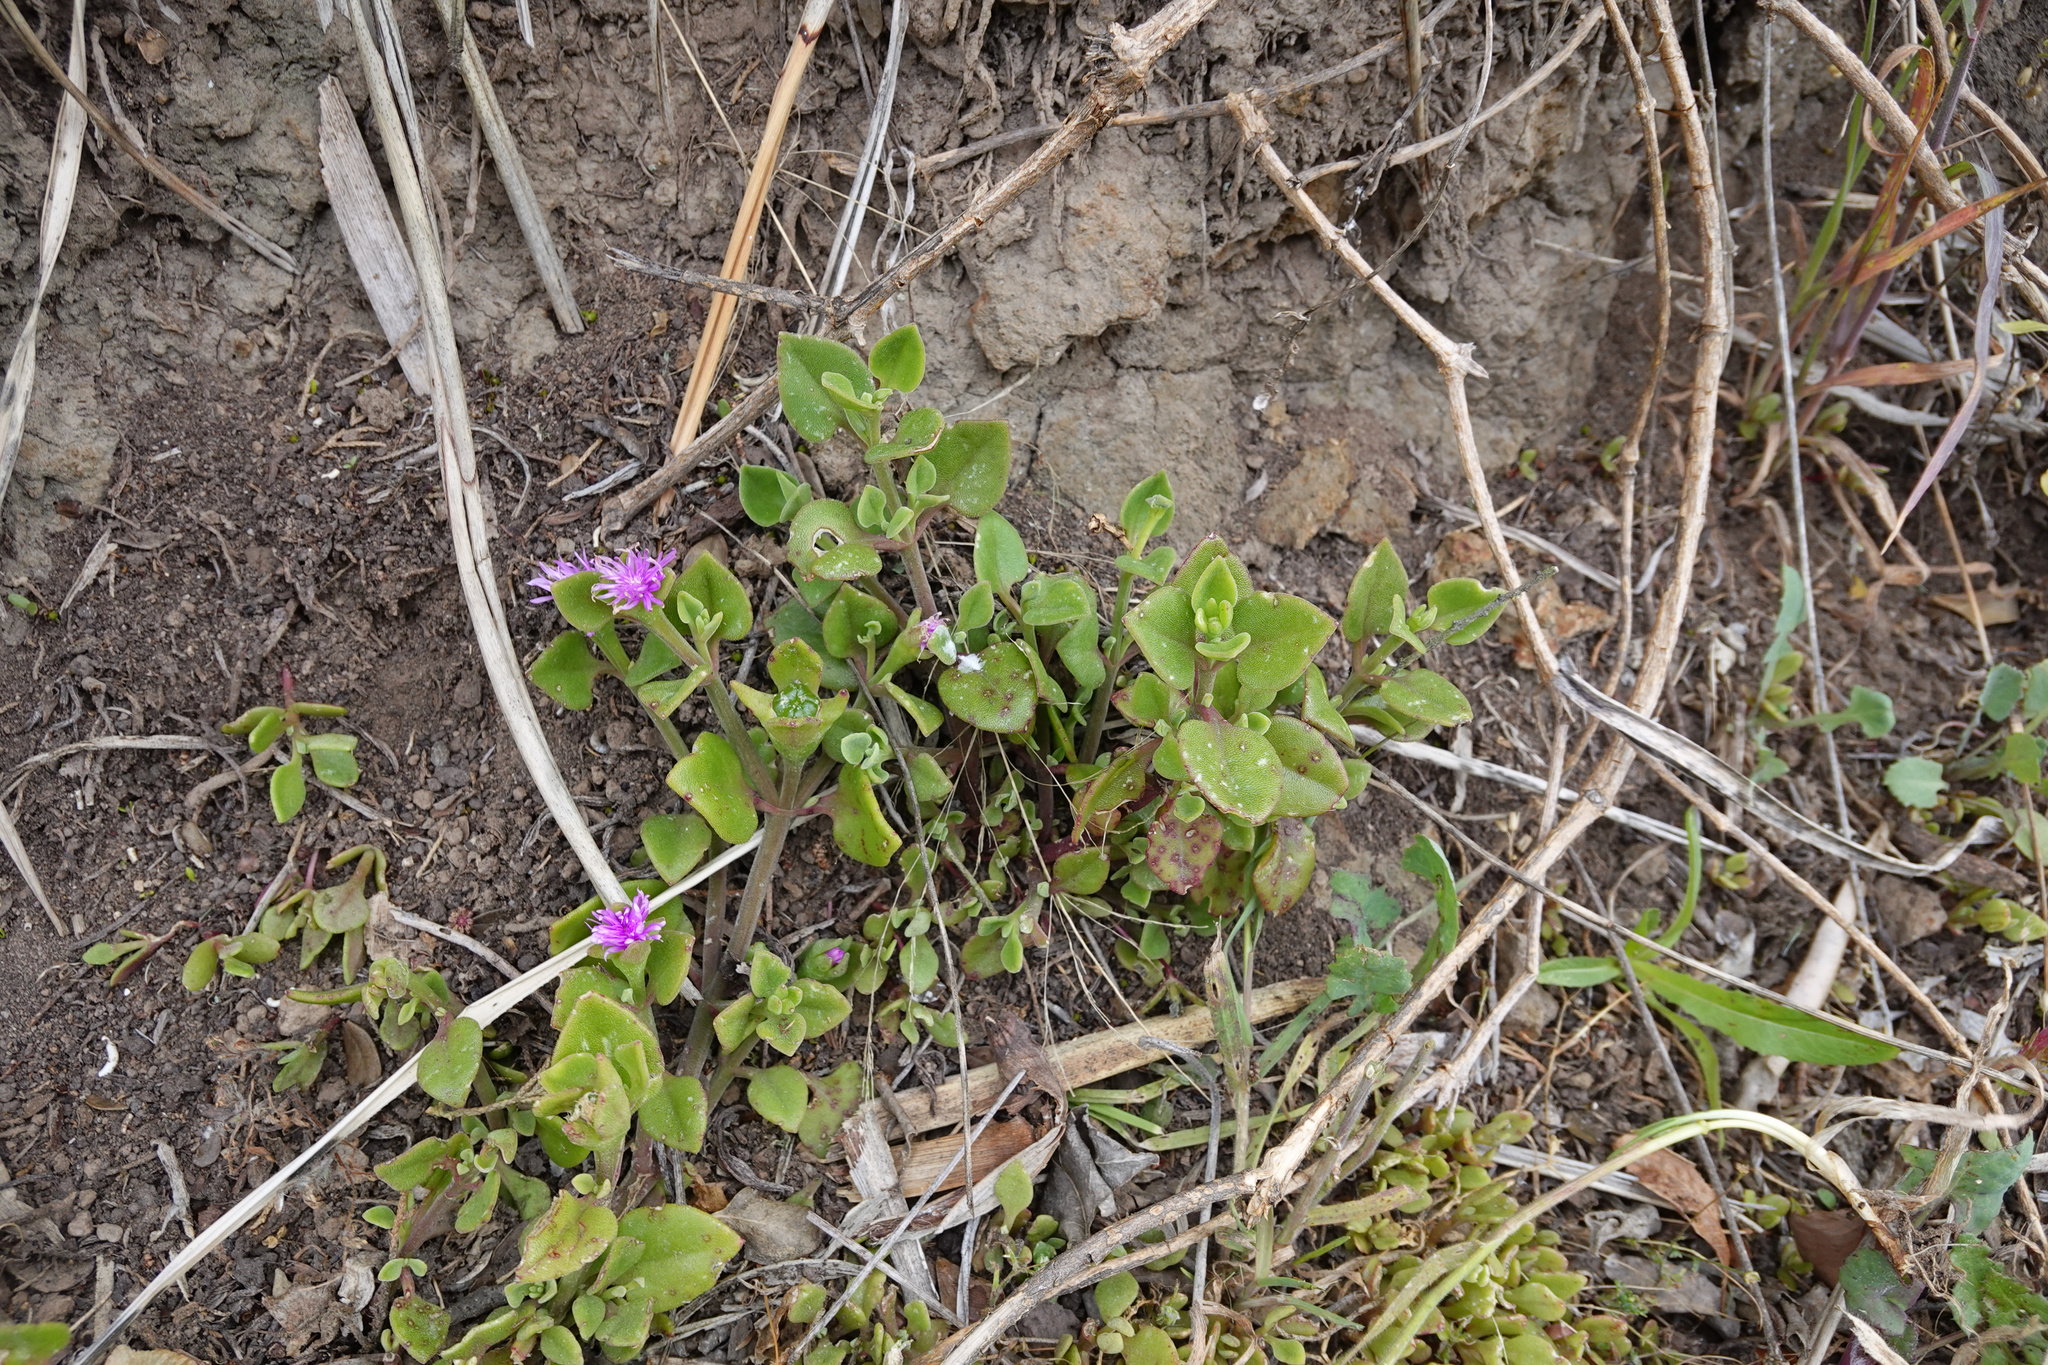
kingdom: Plantae
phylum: Tracheophyta
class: Magnoliopsida
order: Caryophyllales
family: Aizoaceae
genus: Mesembryanthemum
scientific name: Mesembryanthemum cordifolium
